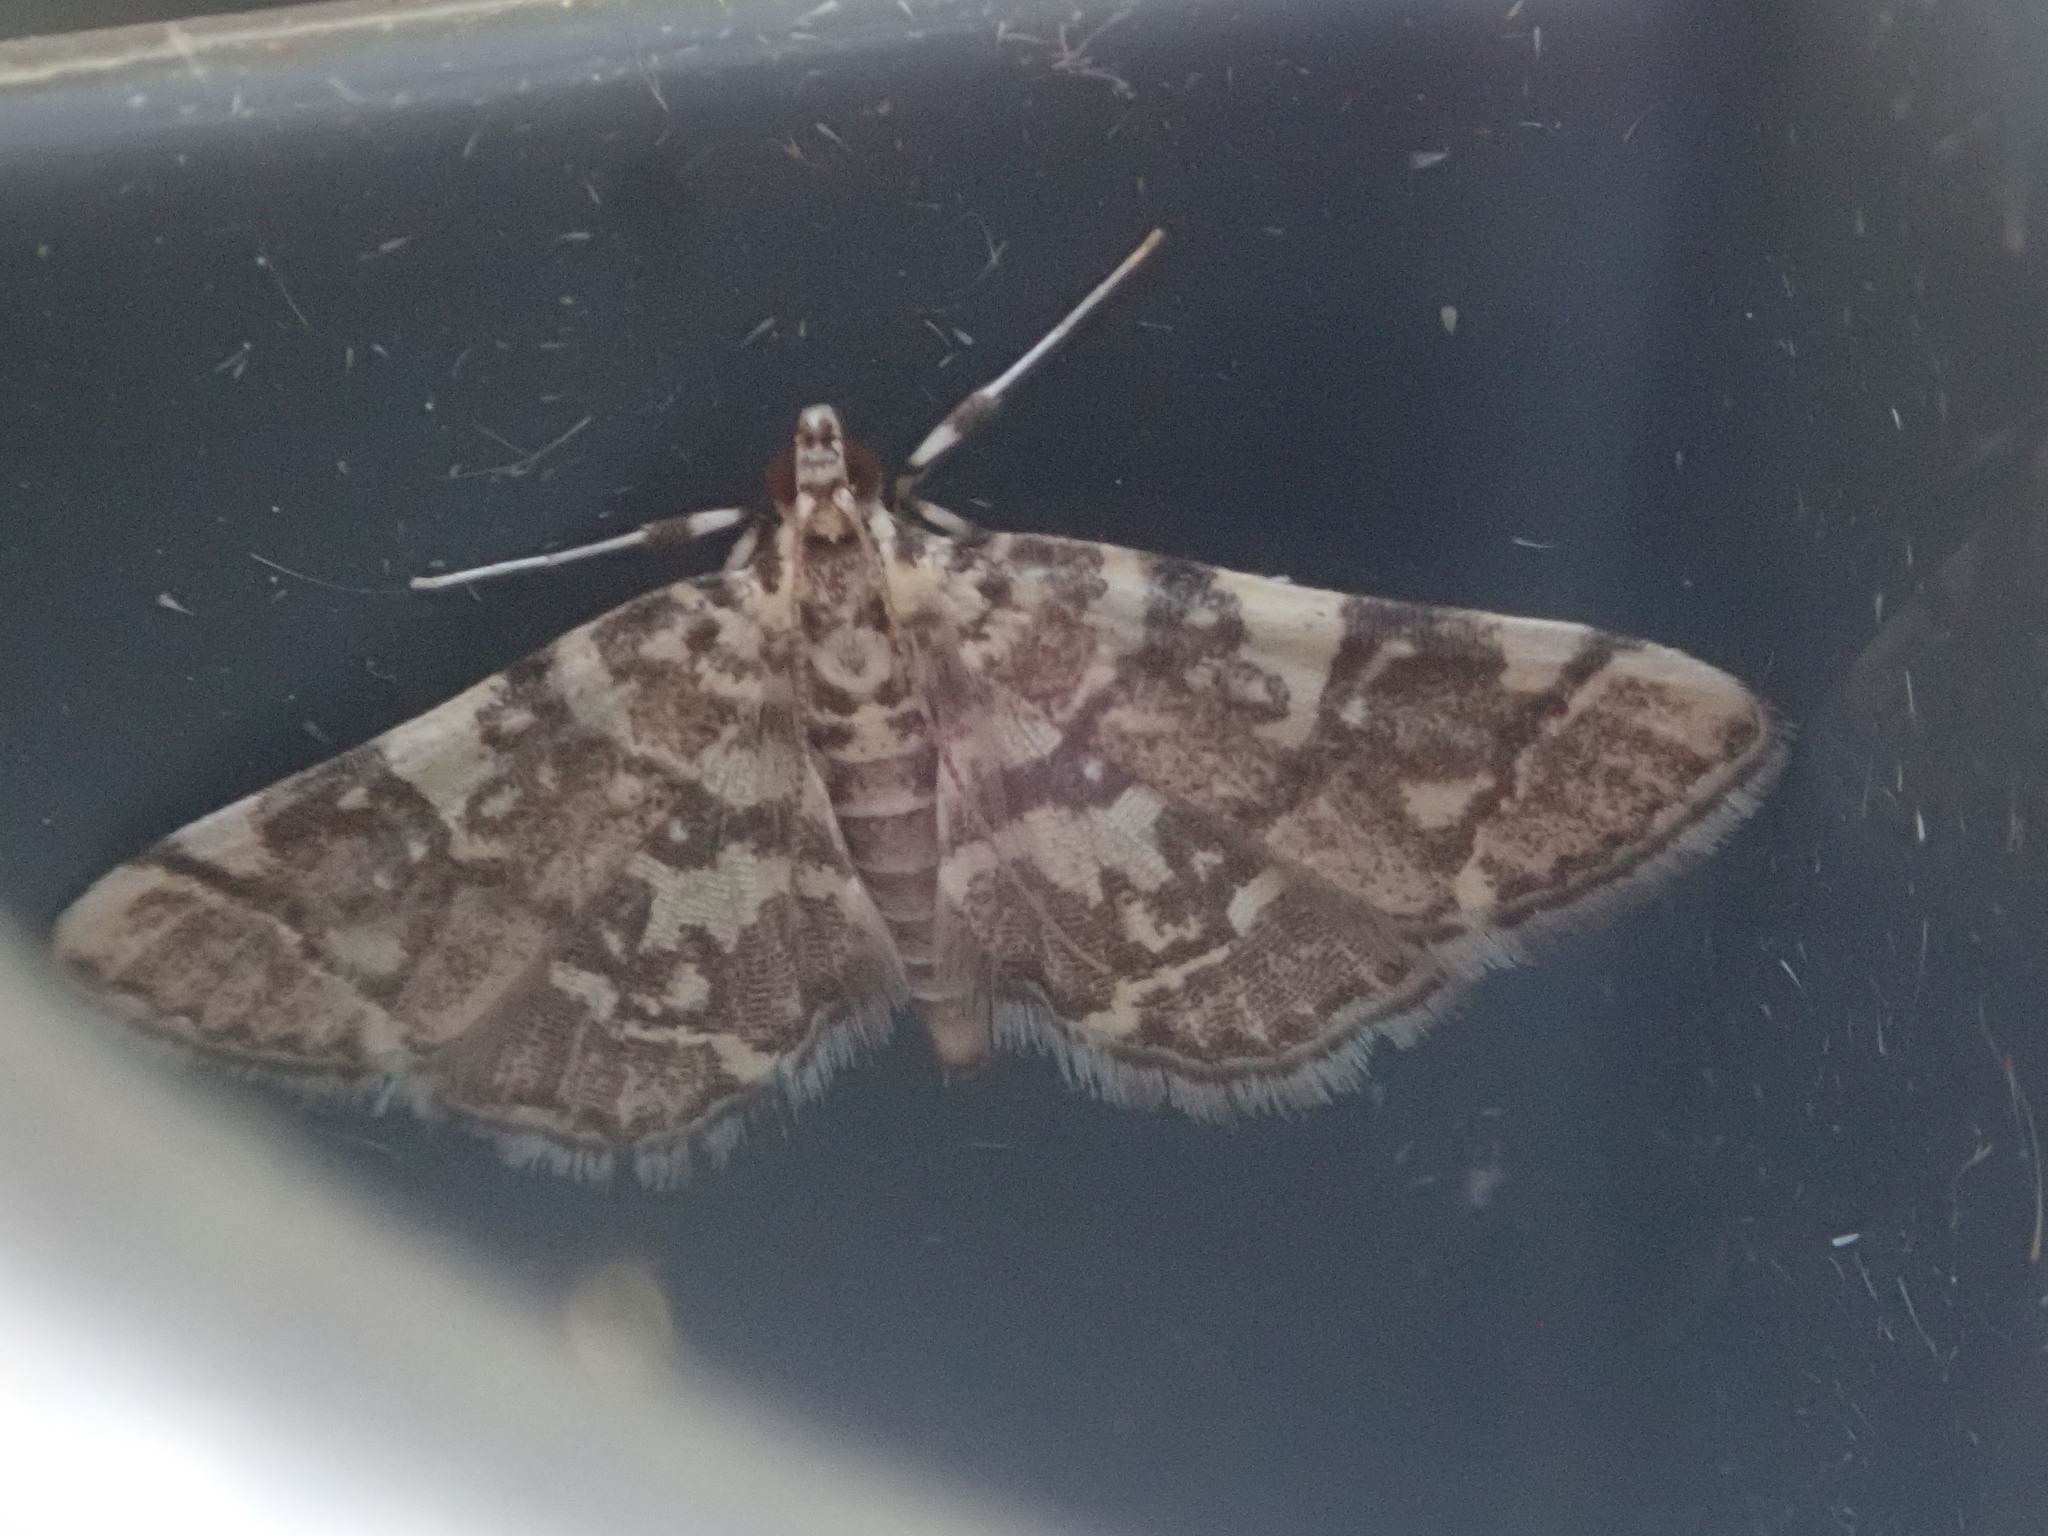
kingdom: Animalia
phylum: Arthropoda
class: Insecta
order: Lepidoptera
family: Crambidae
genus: Apogeshna
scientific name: Apogeshna stenialis
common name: Checkered apogeshna moth
